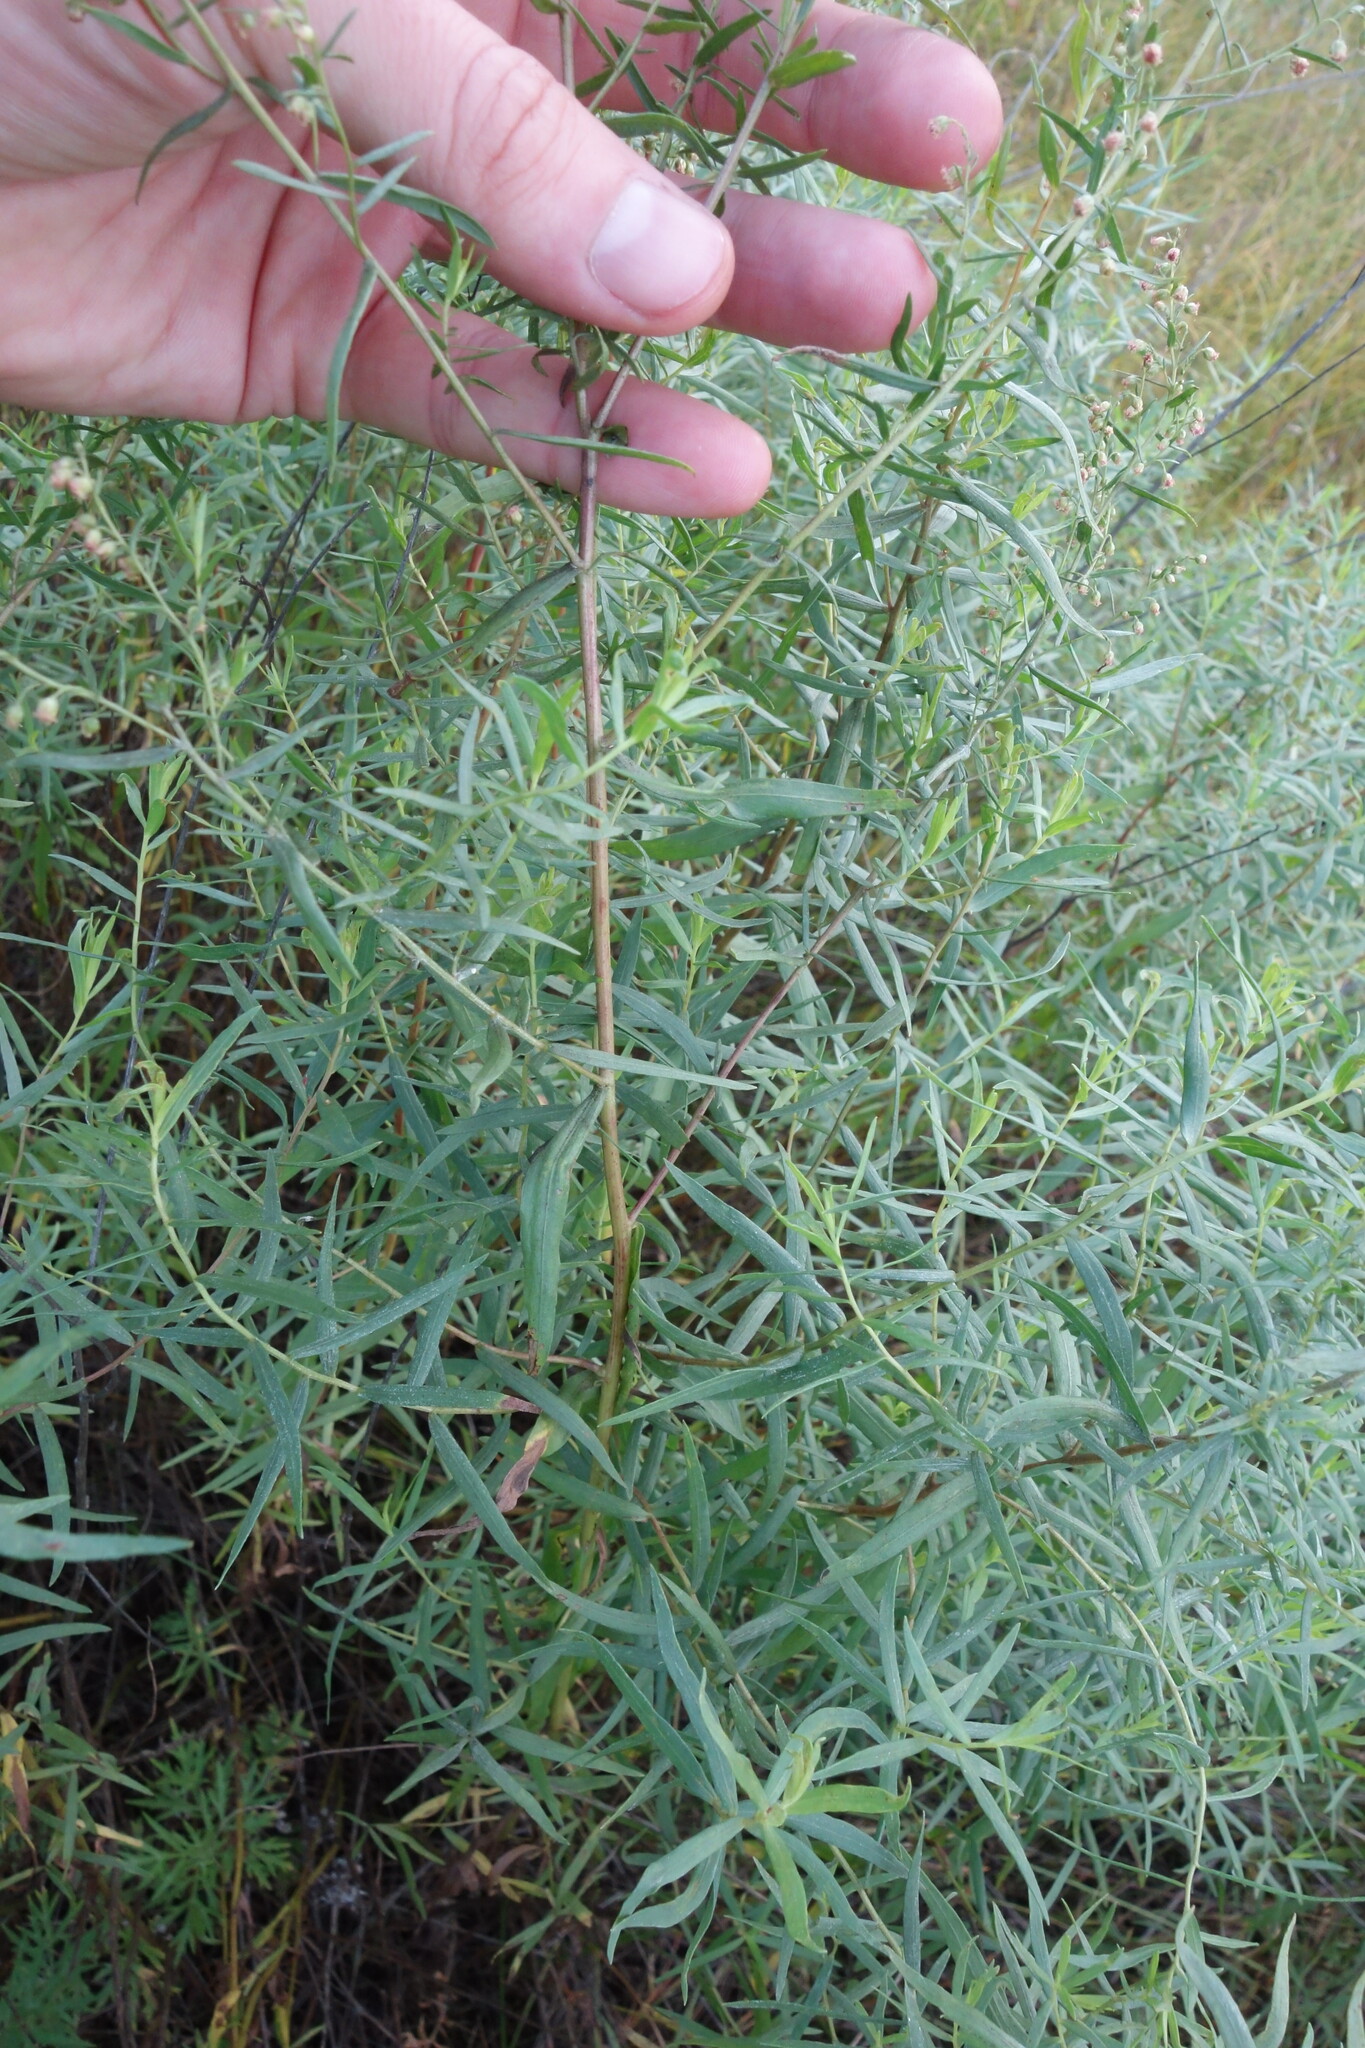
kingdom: Plantae
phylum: Tracheophyta
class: Magnoliopsida
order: Asterales
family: Asteraceae
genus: Artemisia
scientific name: Artemisia dracunculus
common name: Tarragon
